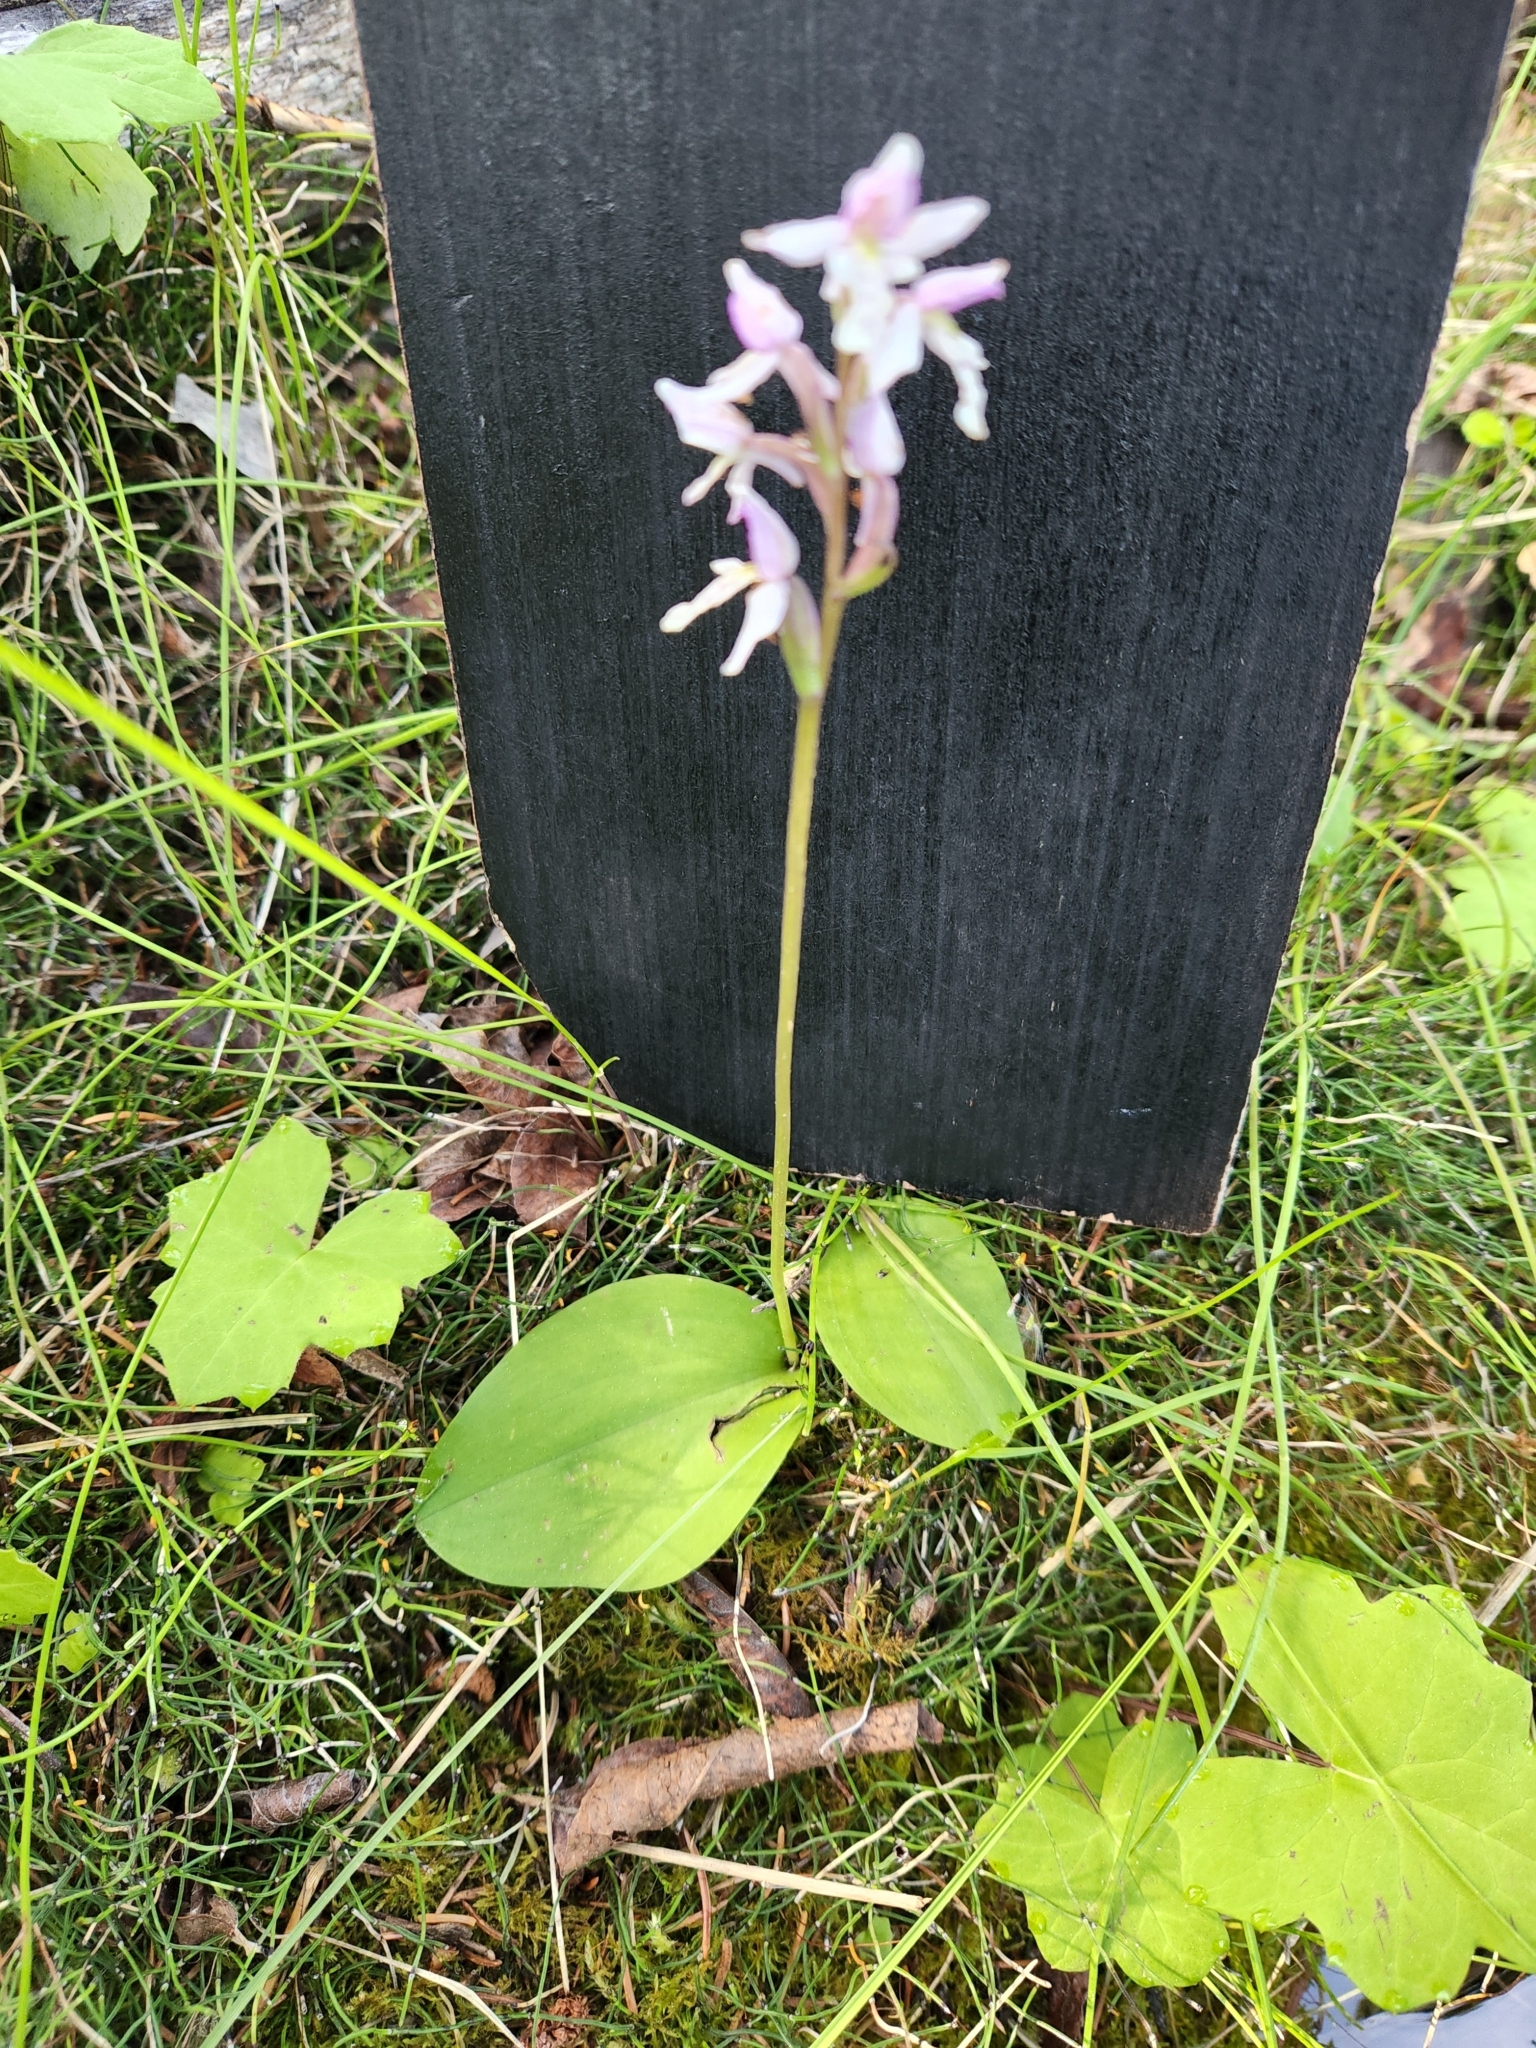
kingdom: Plantae
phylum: Tracheophyta
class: Liliopsida
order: Asparagales
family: Orchidaceae
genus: Galearis
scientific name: Galearis rotundifolia
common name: One-leaved orchis
